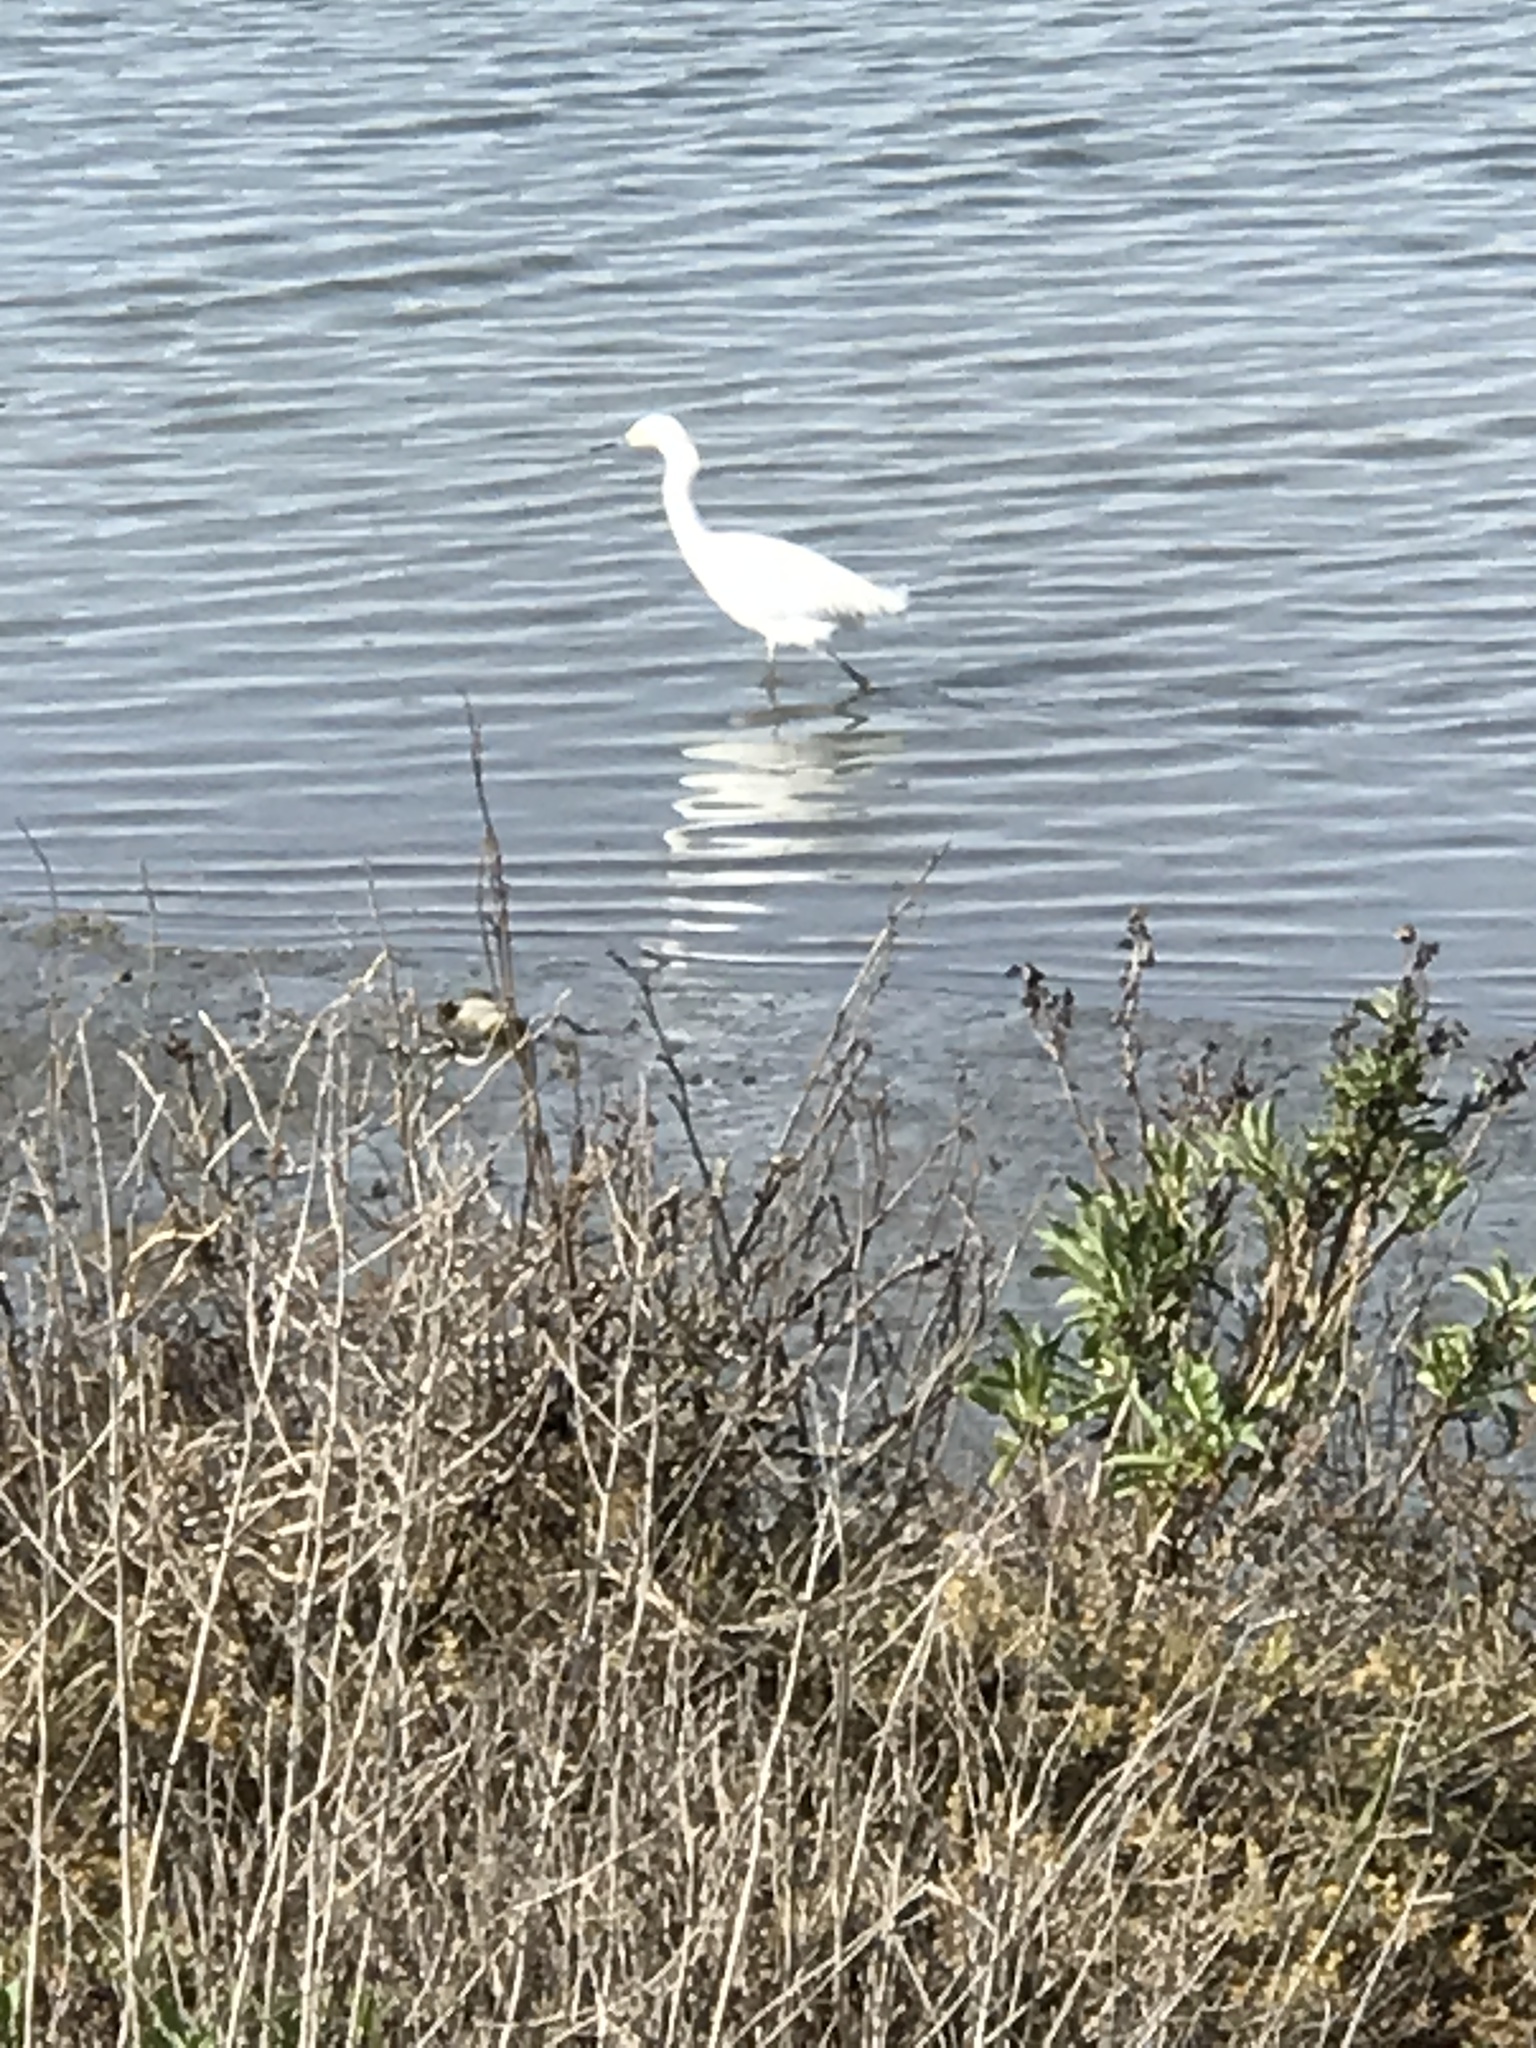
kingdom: Animalia
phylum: Chordata
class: Aves
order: Pelecaniformes
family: Ardeidae
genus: Egretta
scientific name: Egretta thula
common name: Snowy egret
